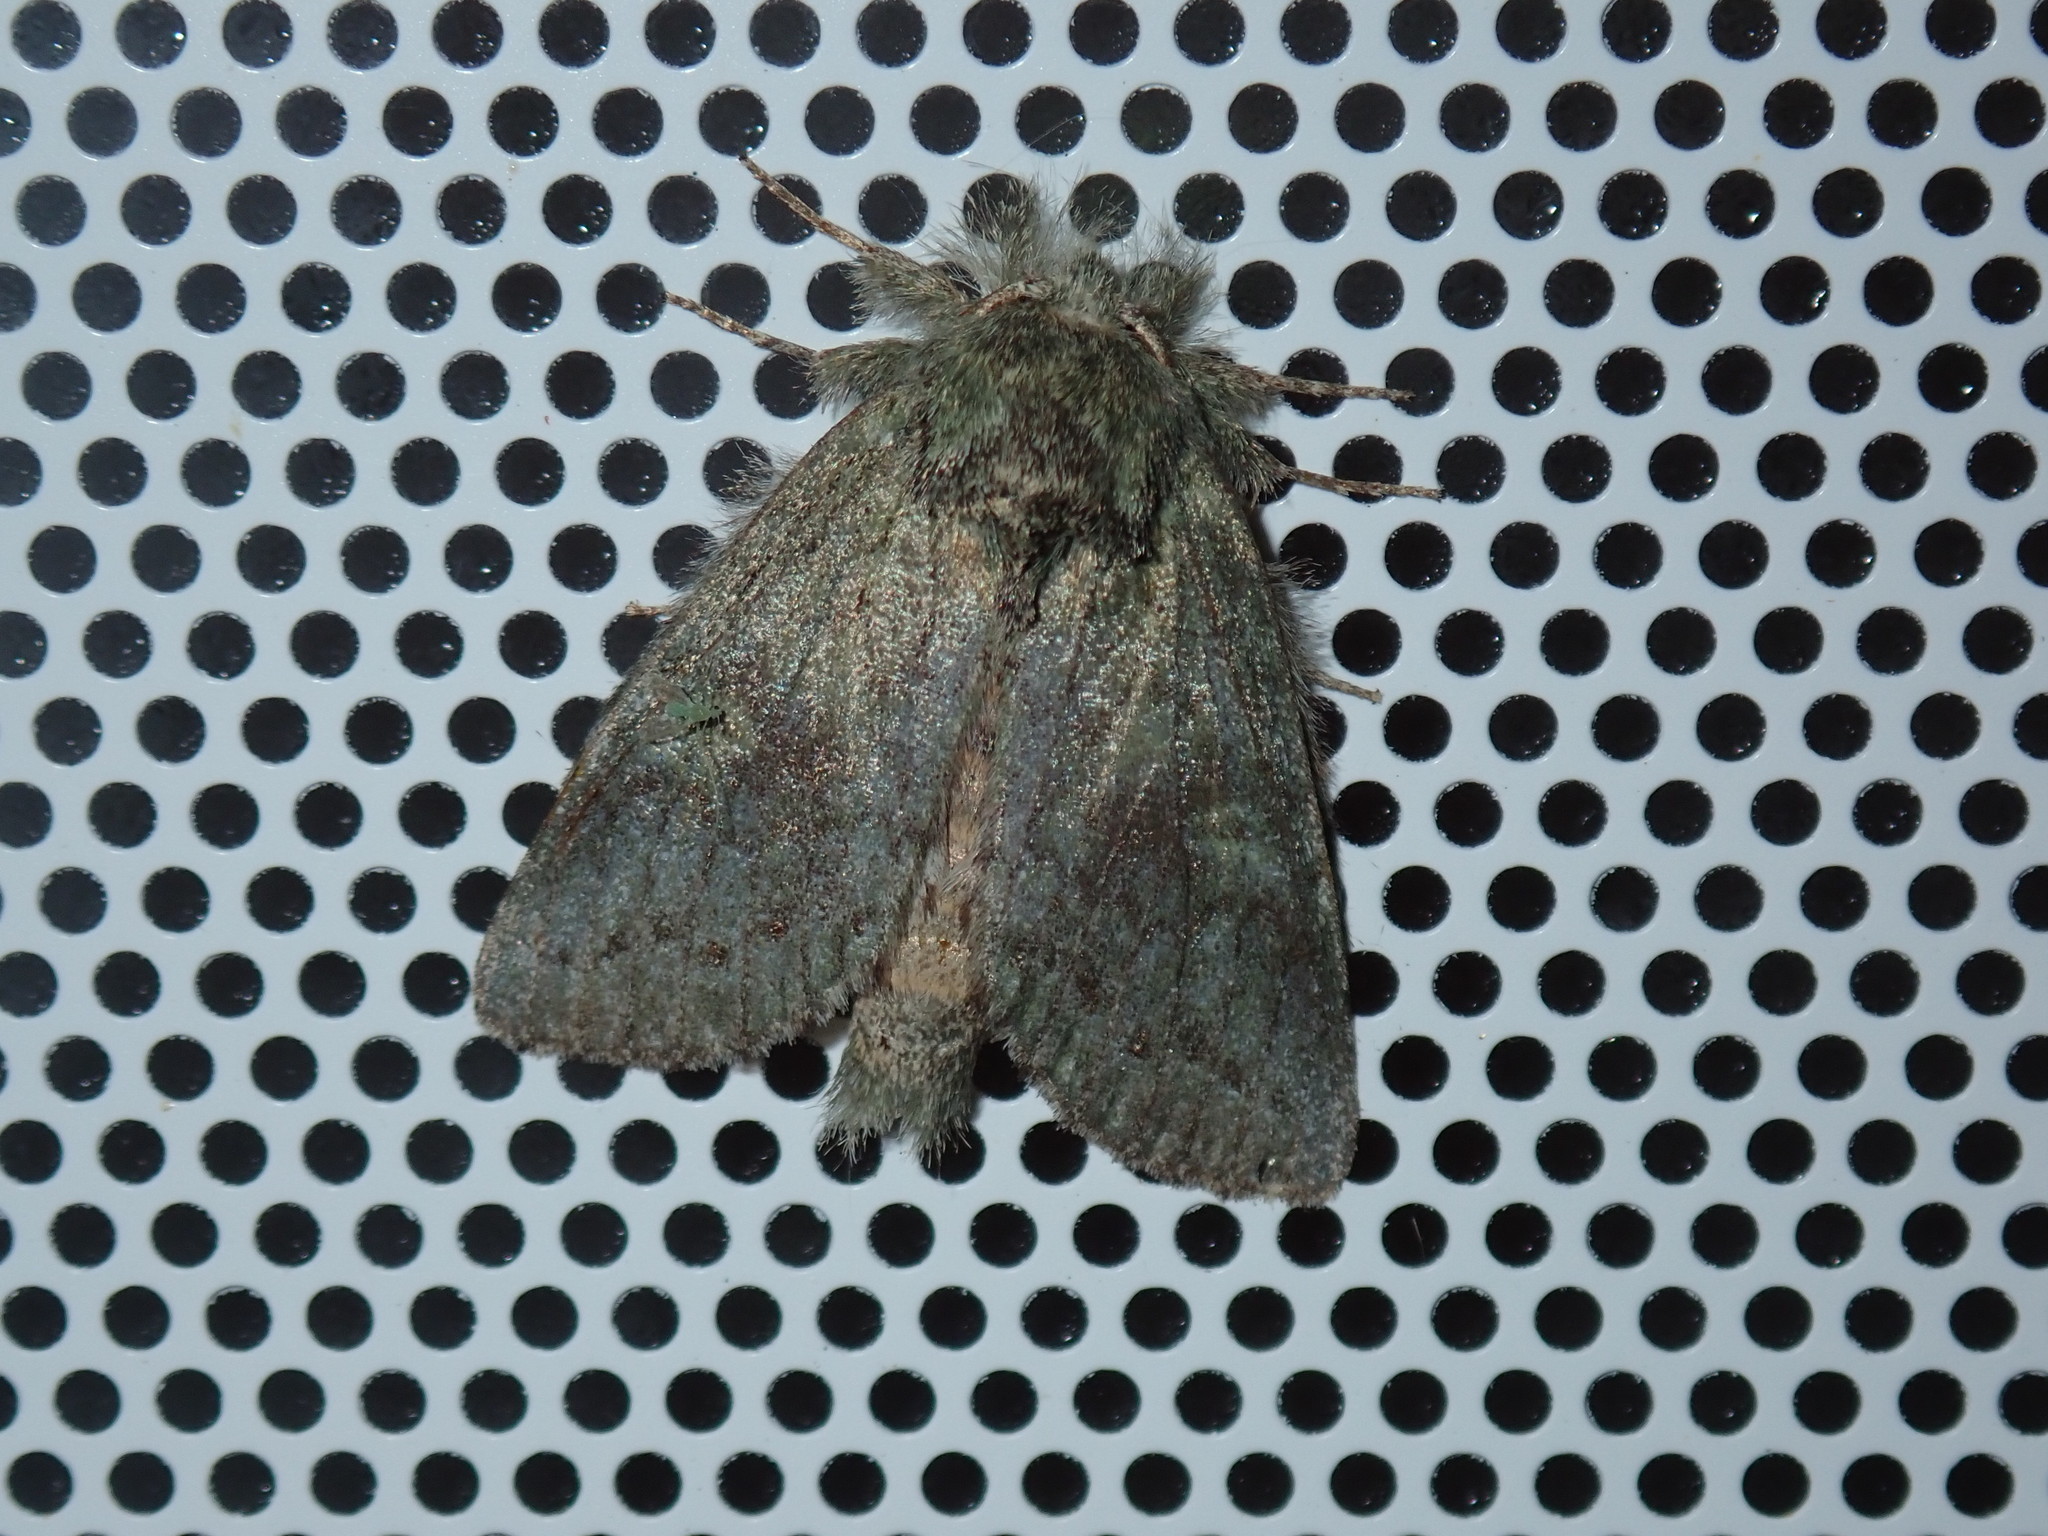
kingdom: Animalia
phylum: Arthropoda
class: Insecta
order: Lepidoptera
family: Notodontidae
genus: Disphragis
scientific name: Disphragis Cecrita guttivitta
